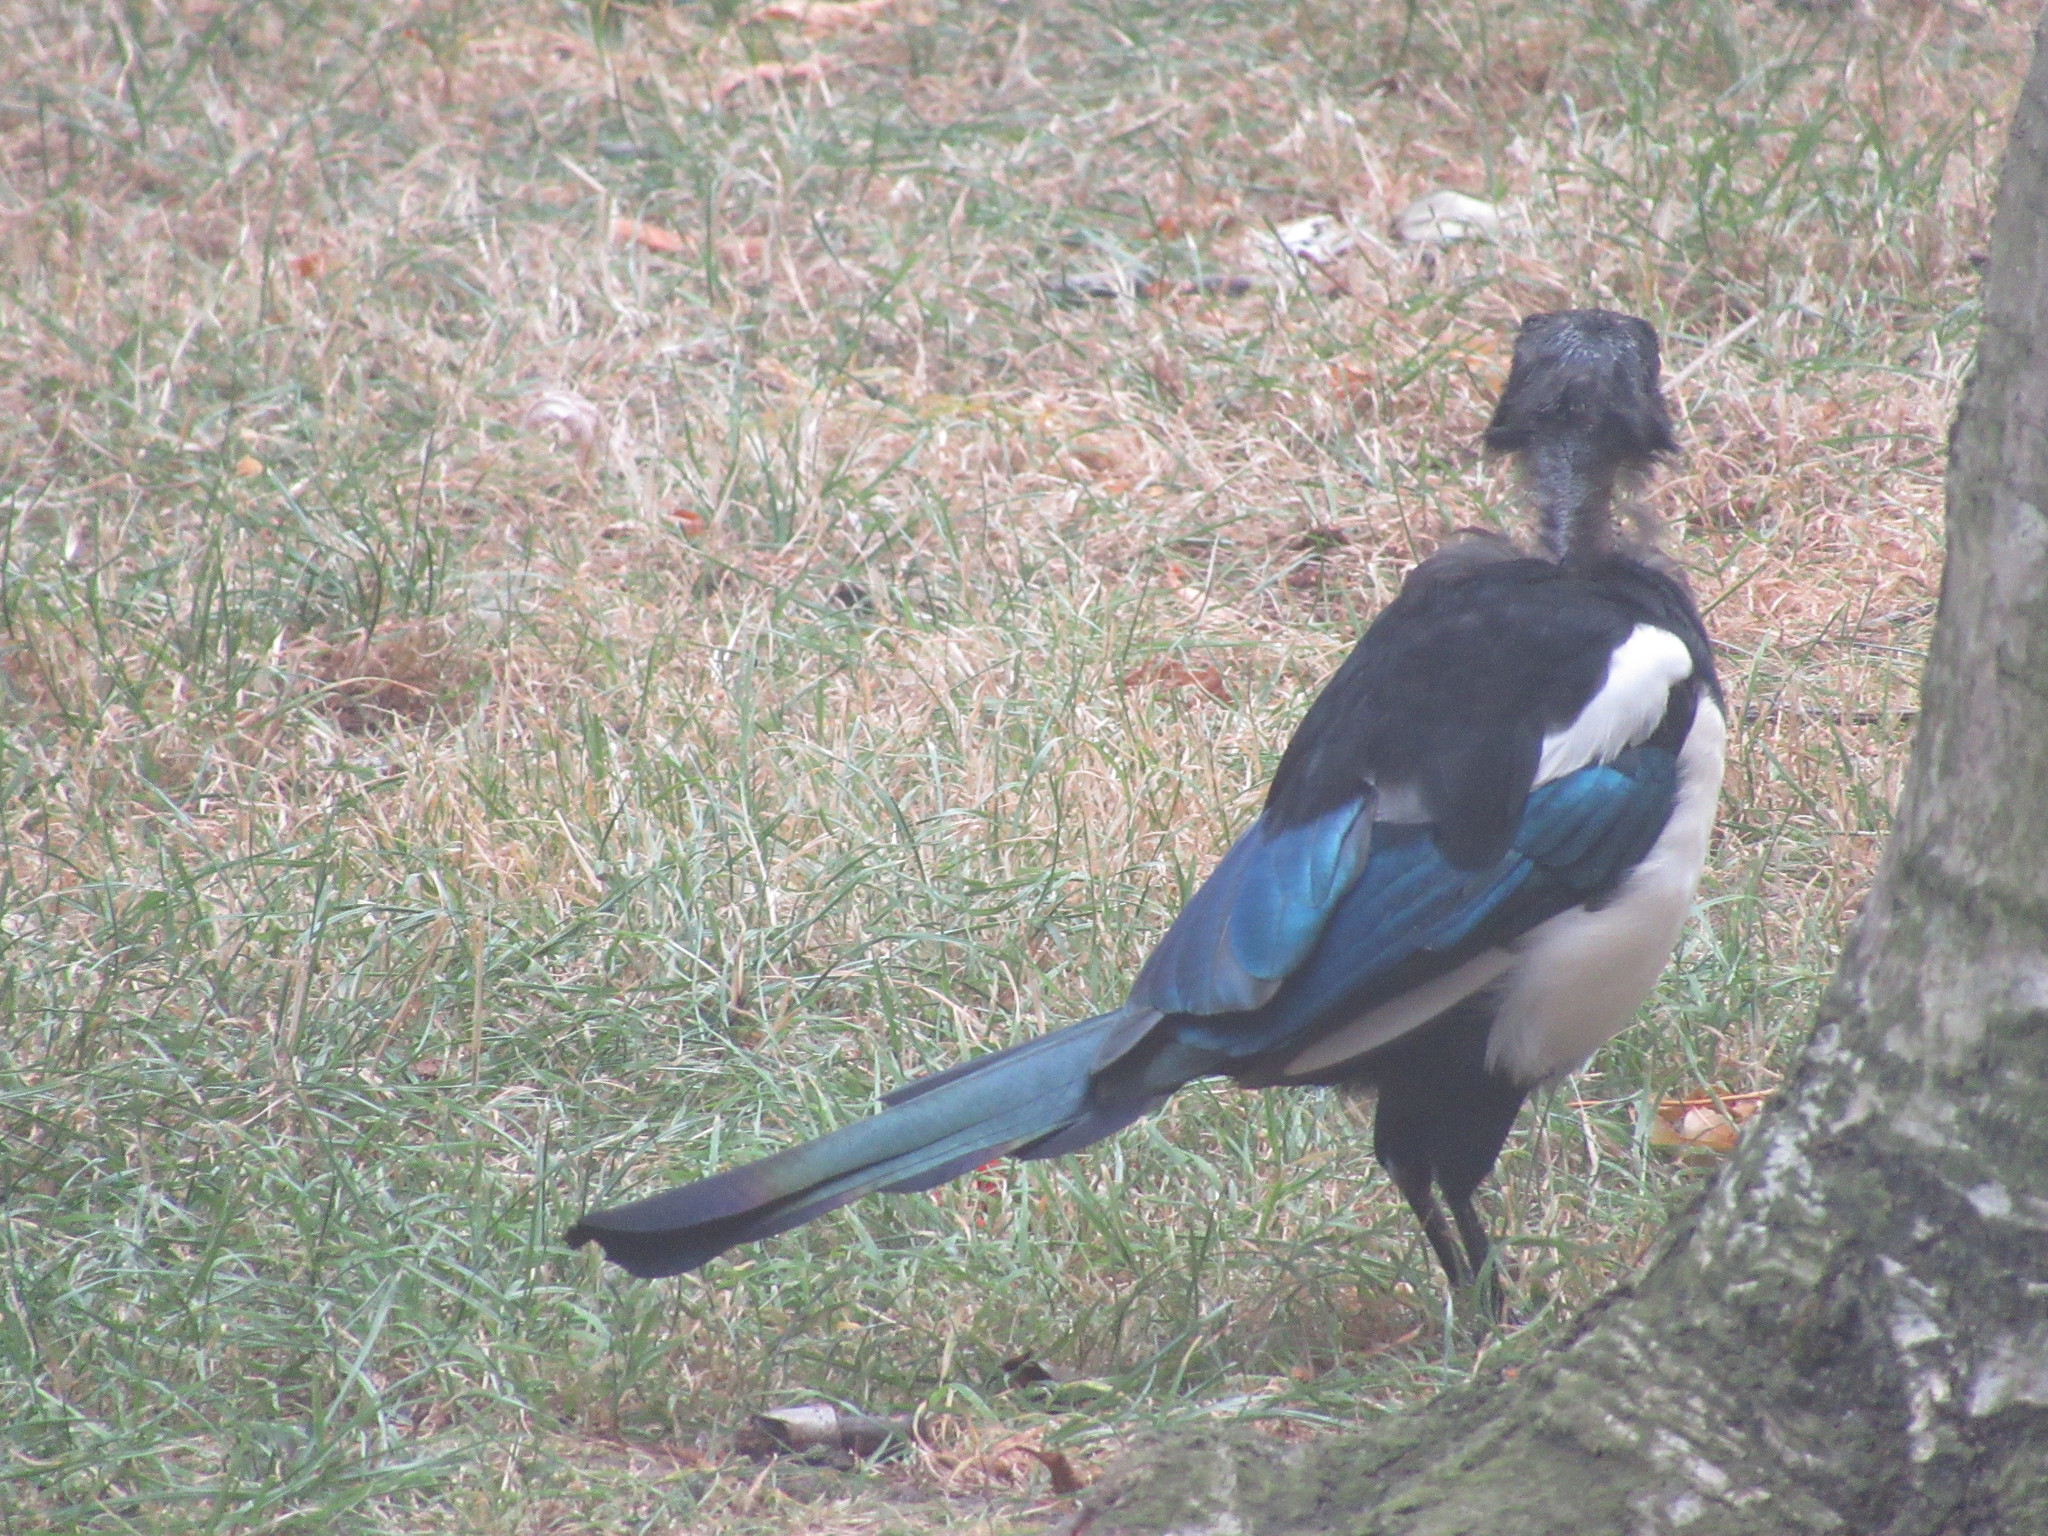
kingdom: Animalia
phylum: Chordata
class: Aves
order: Passeriformes
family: Corvidae
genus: Pica
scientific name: Pica pica
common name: Eurasian magpie
